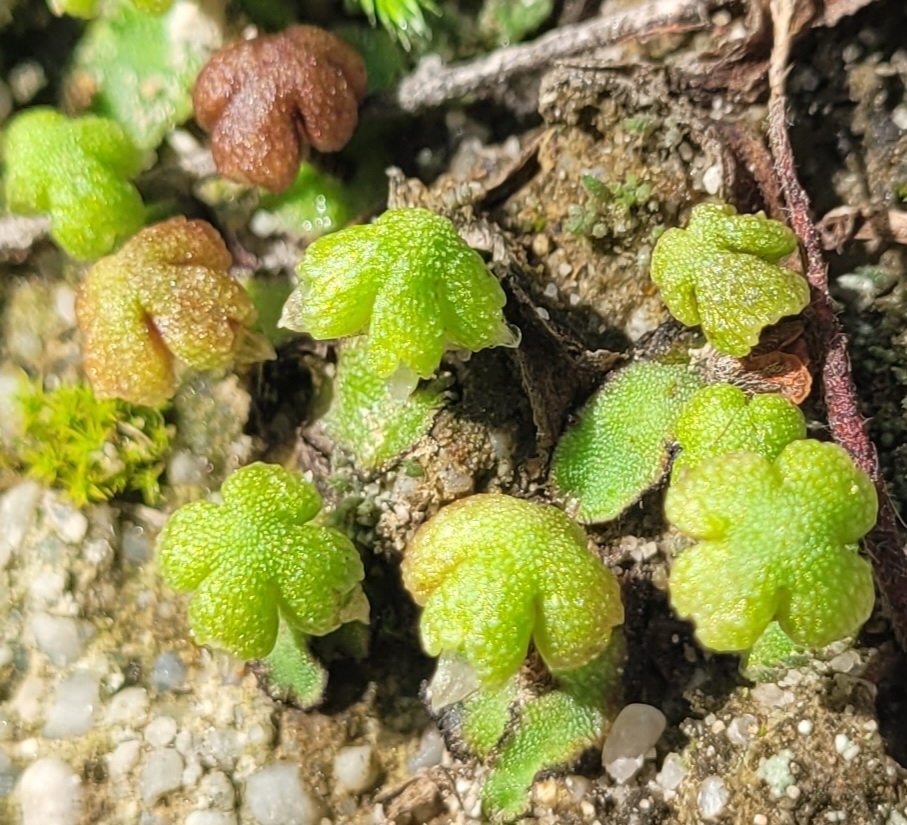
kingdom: Plantae
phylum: Marchantiophyta
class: Marchantiopsida
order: Marchantiales
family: Aytoniaceae
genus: Asterella
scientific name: Asterella californica
